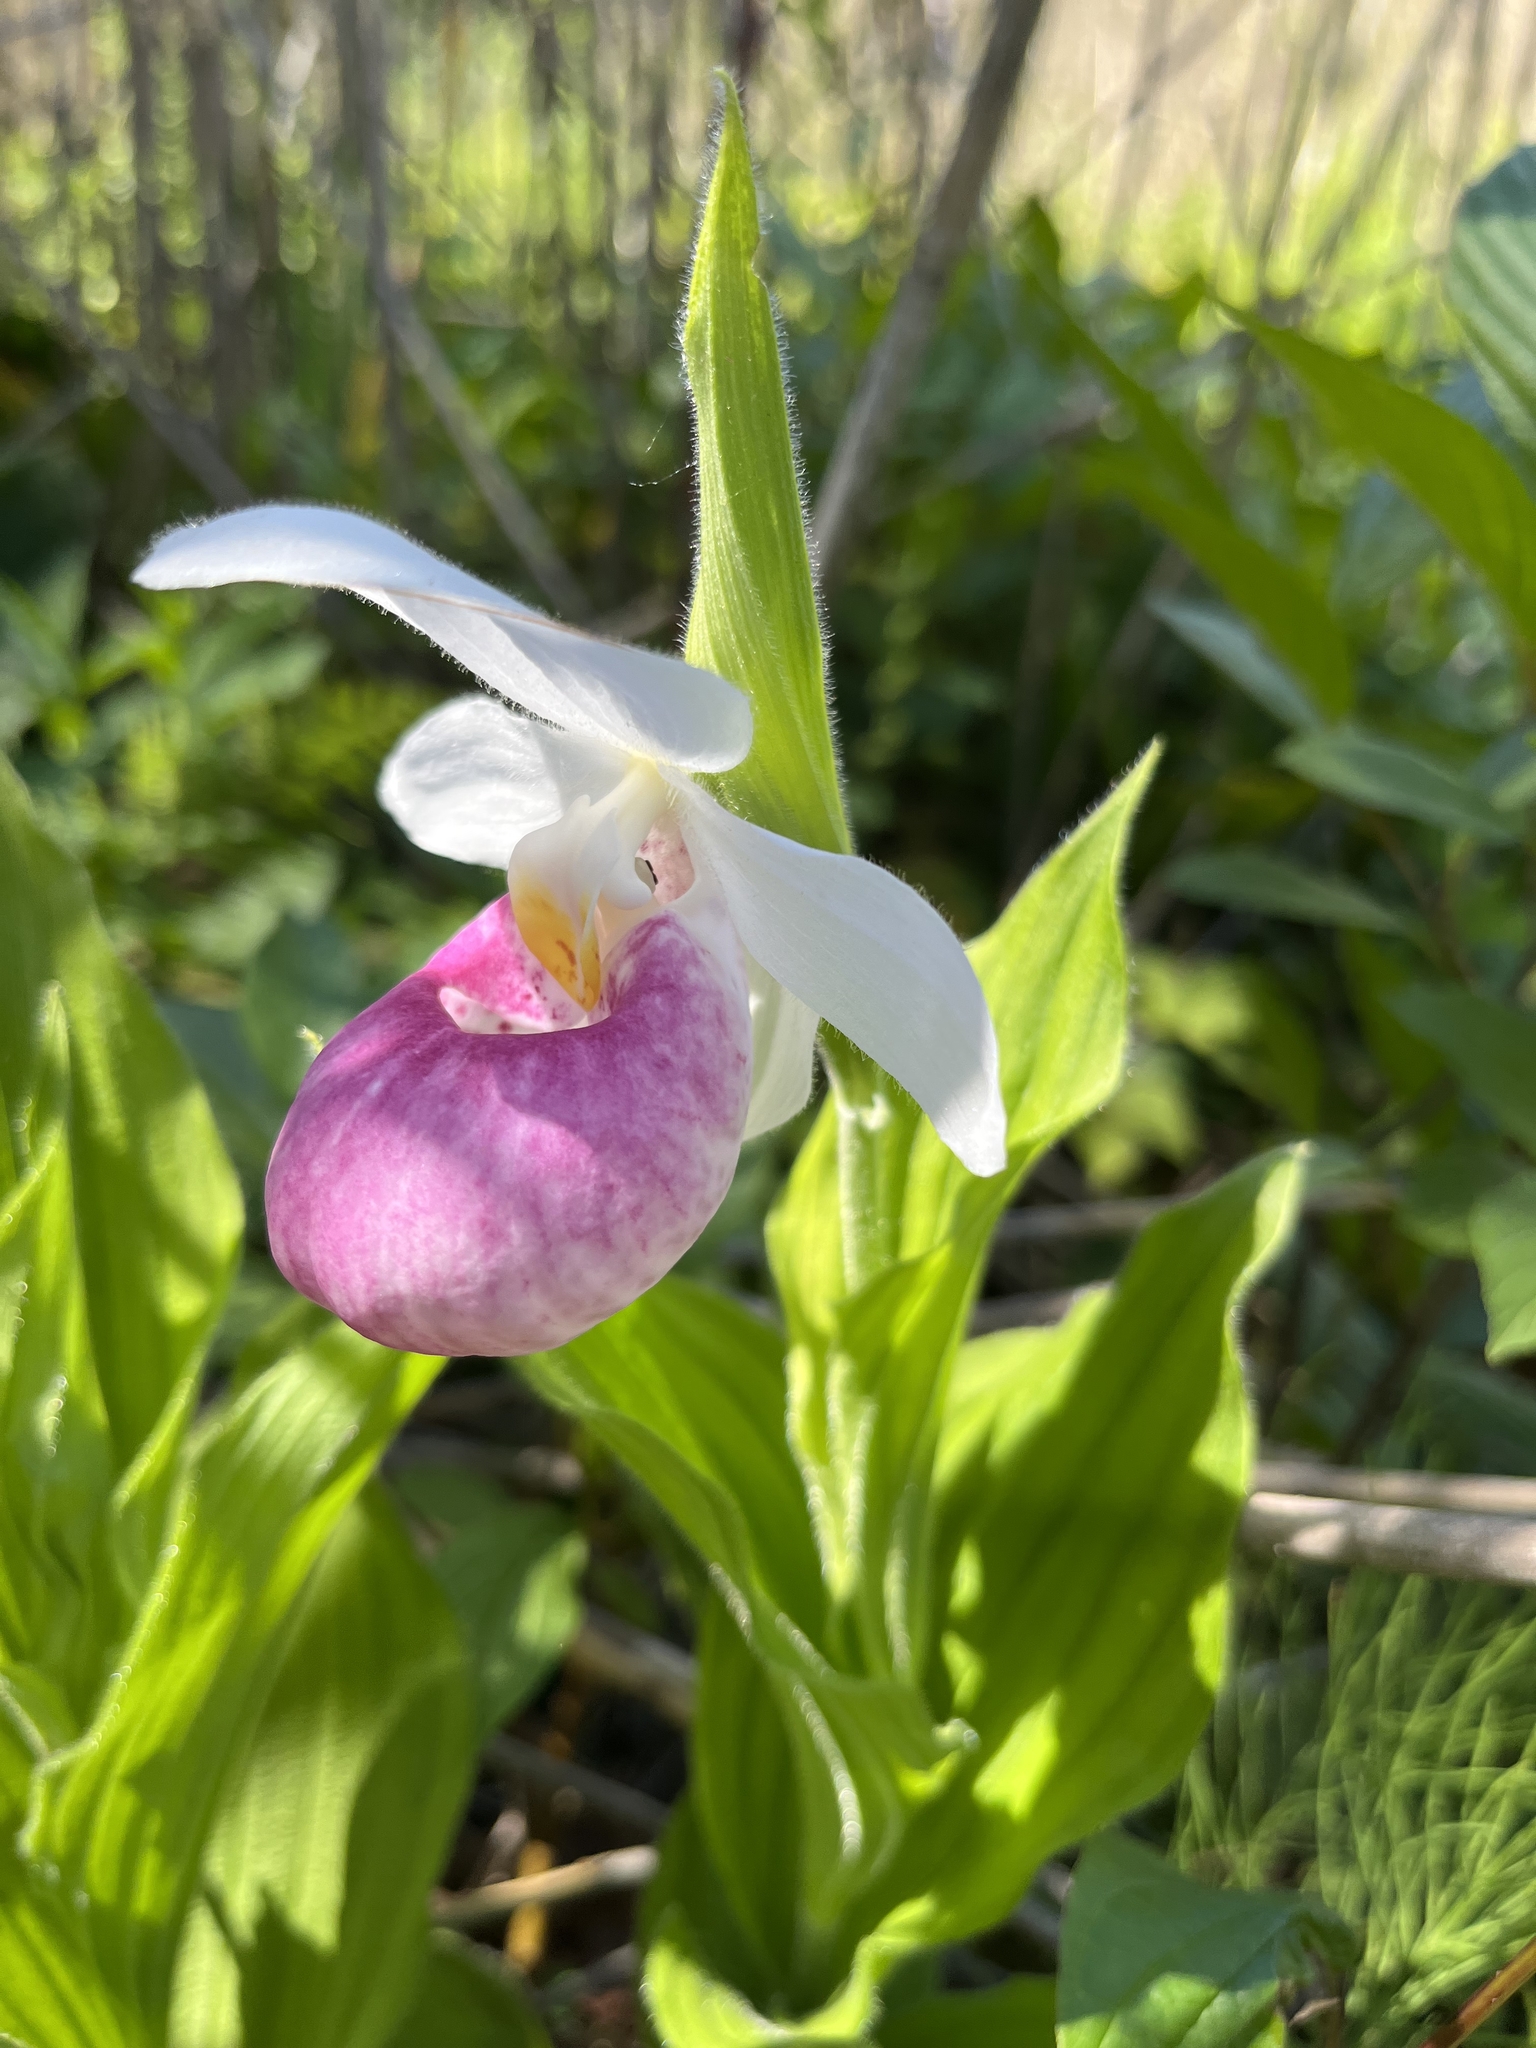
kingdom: Plantae
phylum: Tracheophyta
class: Liliopsida
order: Asparagales
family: Orchidaceae
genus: Cypripedium
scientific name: Cypripedium reginae
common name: Queen lady's-slipper
